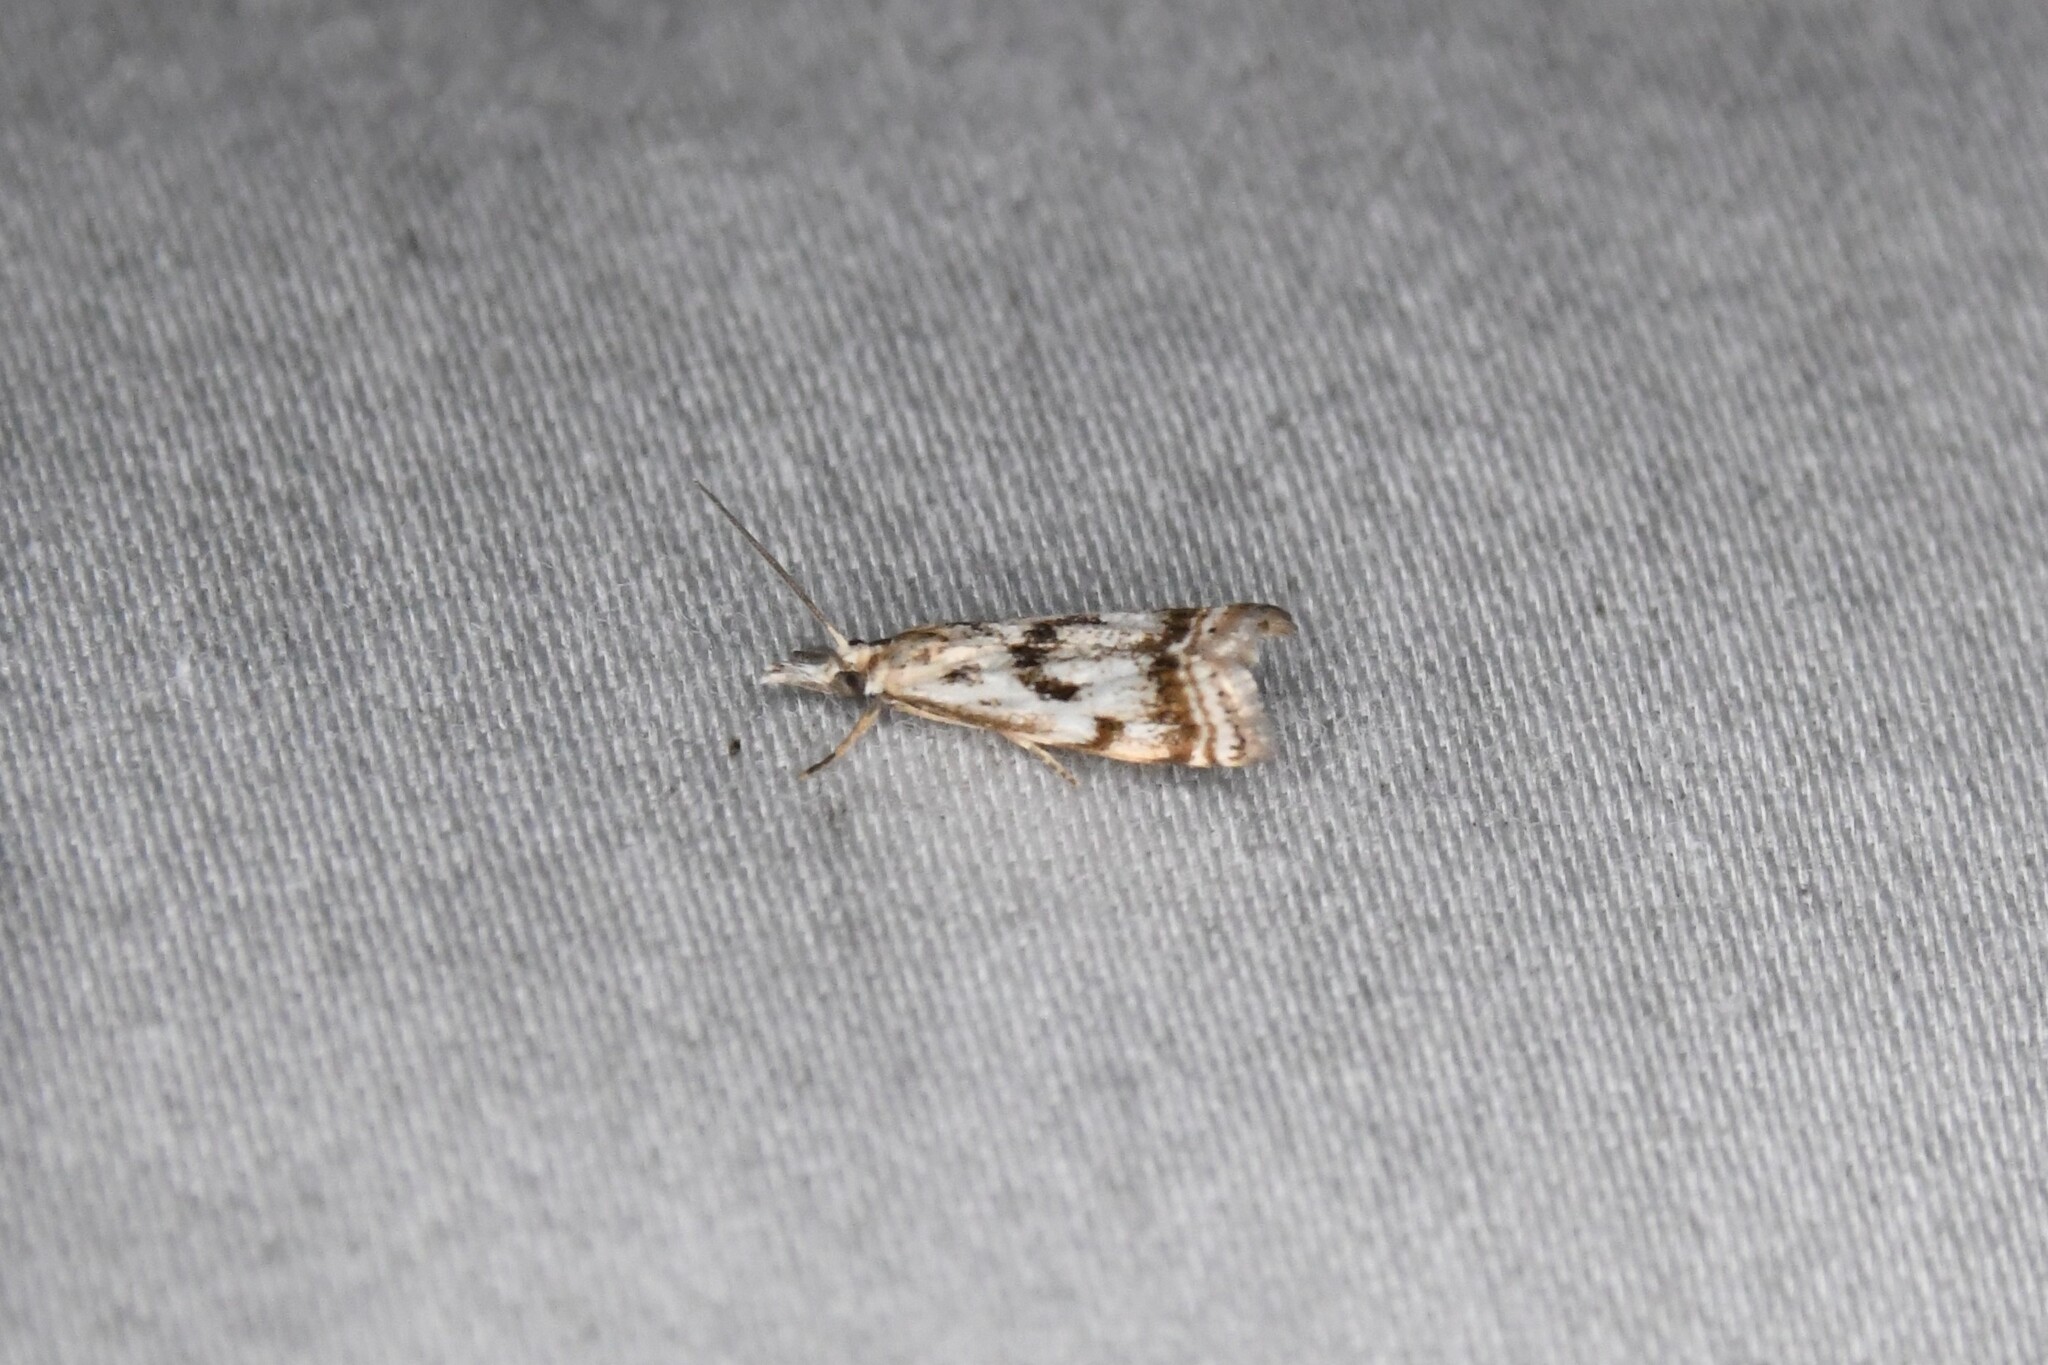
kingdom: Animalia
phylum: Arthropoda
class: Insecta
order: Lepidoptera
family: Crambidae
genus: Microcrambus
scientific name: Microcrambus elegans
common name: Elegant grass-veneer
